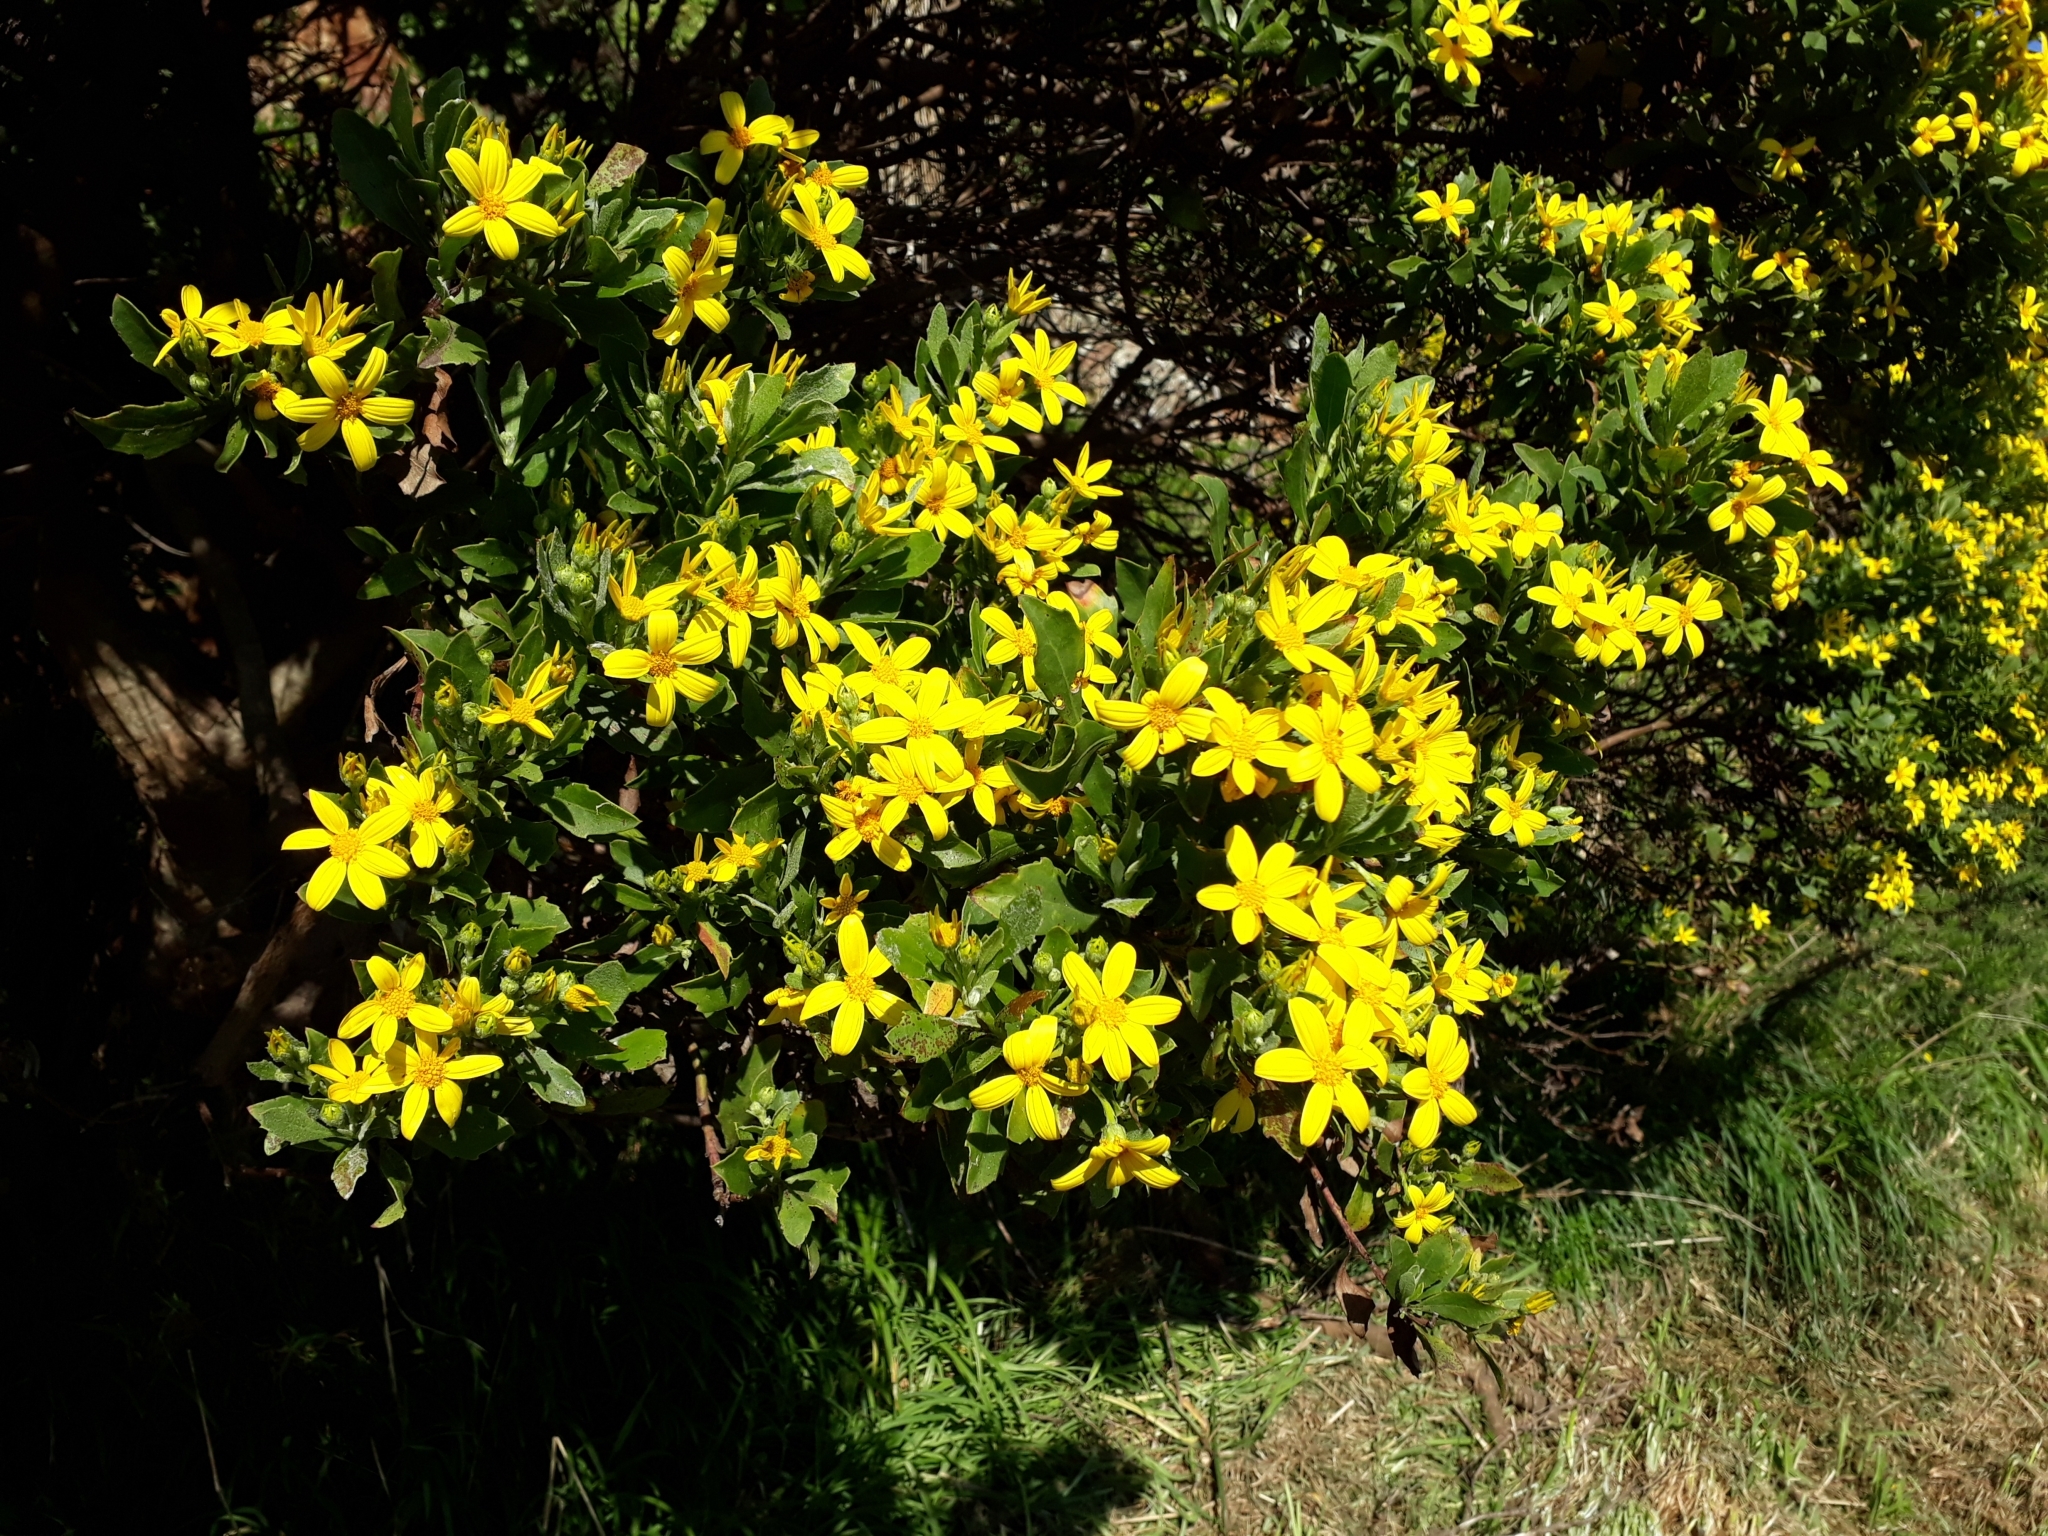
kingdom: Plantae
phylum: Tracheophyta
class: Magnoliopsida
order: Asterales
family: Asteraceae
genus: Osteospermum
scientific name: Osteospermum moniliferum
